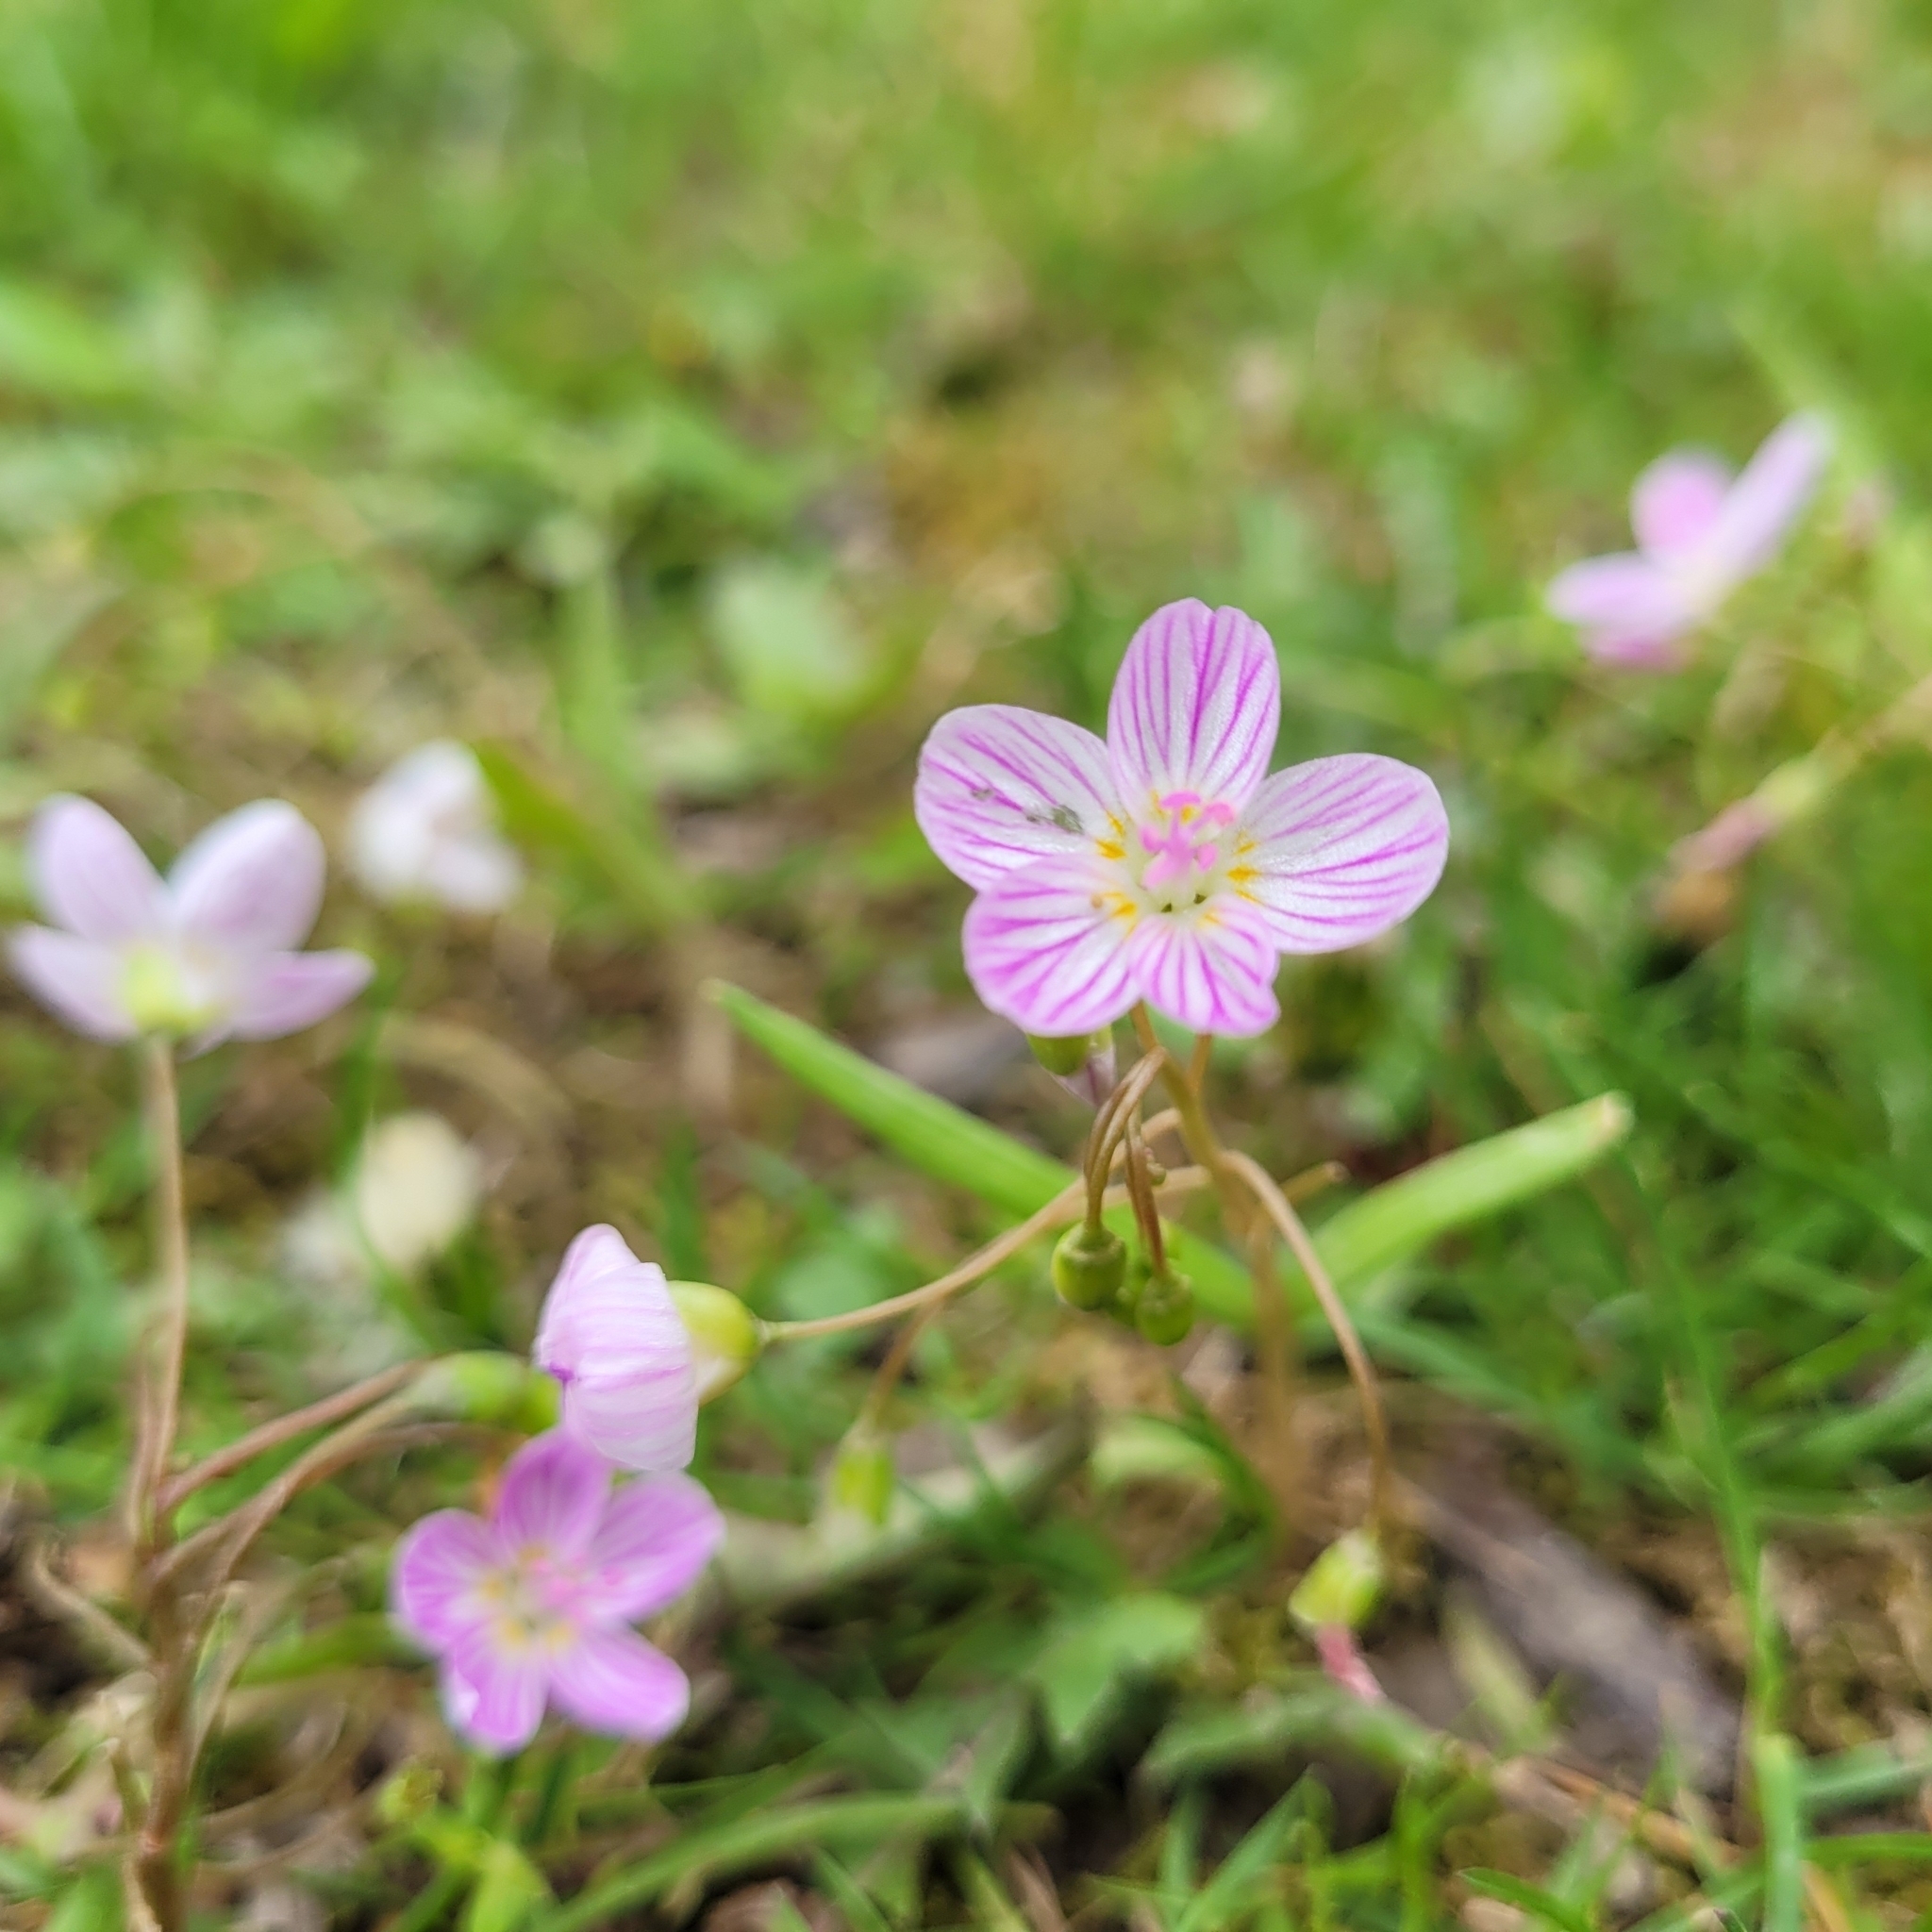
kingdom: Plantae
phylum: Tracheophyta
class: Magnoliopsida
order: Caryophyllales
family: Montiaceae
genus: Claytonia
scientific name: Claytonia virginica
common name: Virginia springbeauty
